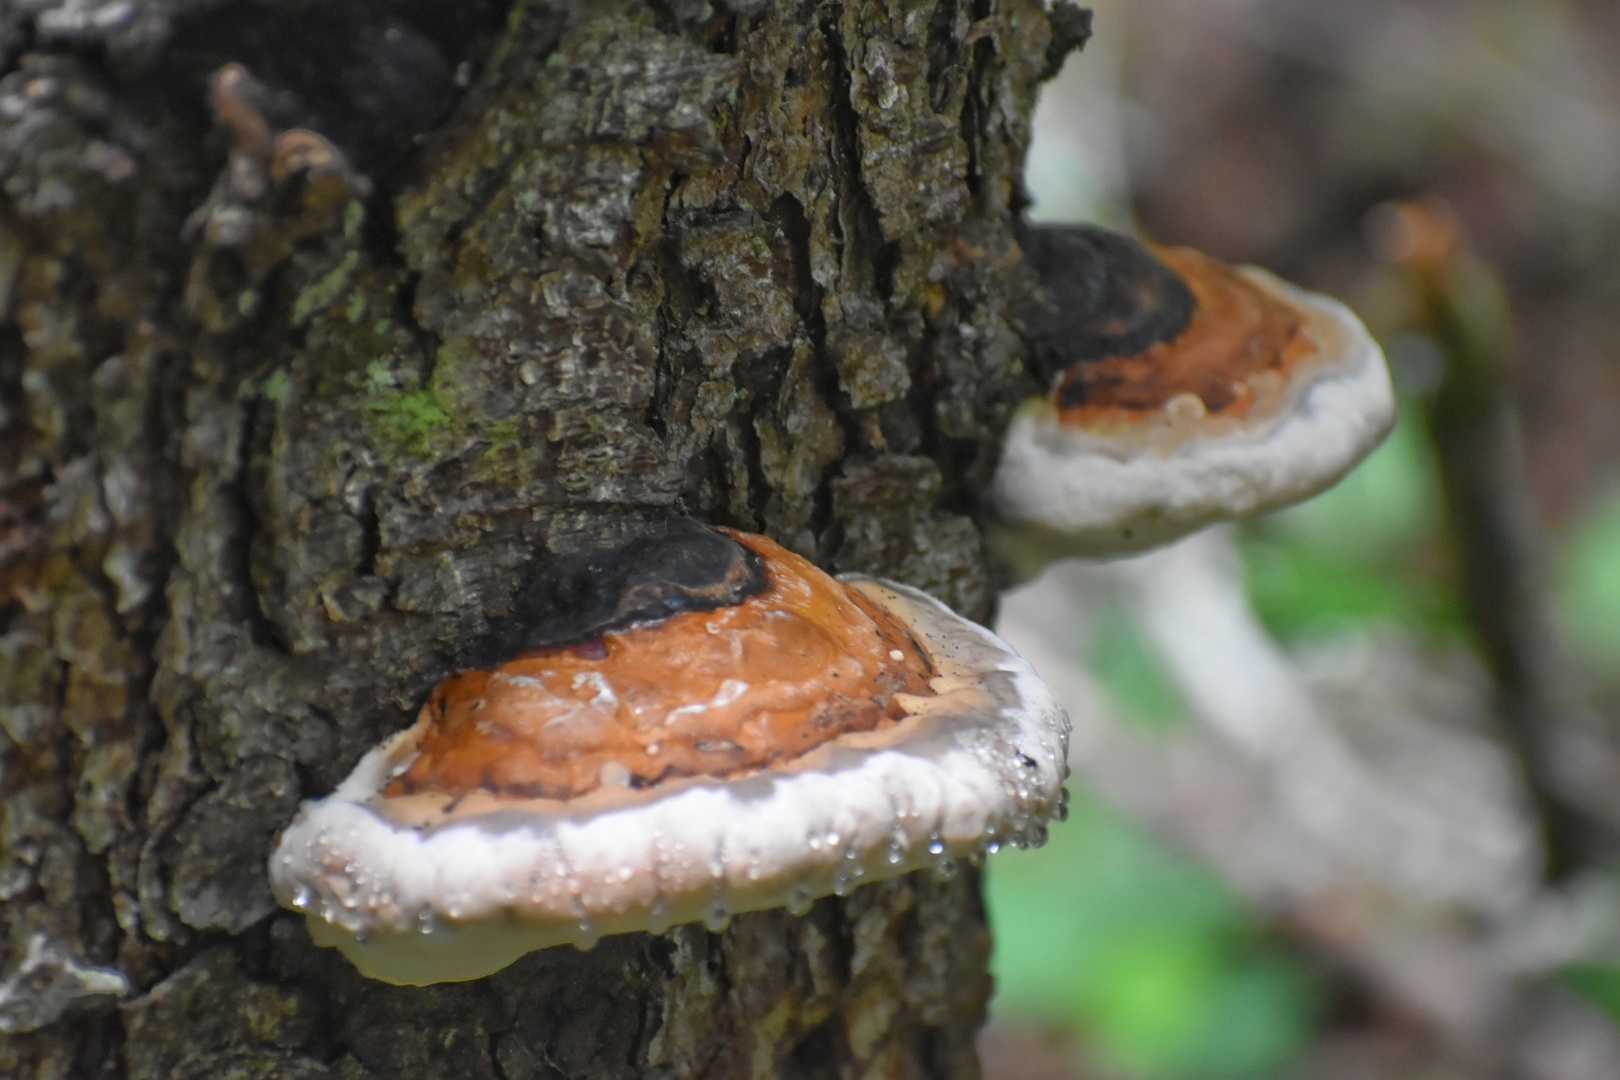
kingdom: Fungi
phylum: Basidiomycota
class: Agaricomycetes
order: Polyporales
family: Fomitopsidaceae
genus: Fomitopsis
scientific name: Fomitopsis pinicola
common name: Red-belted bracket
